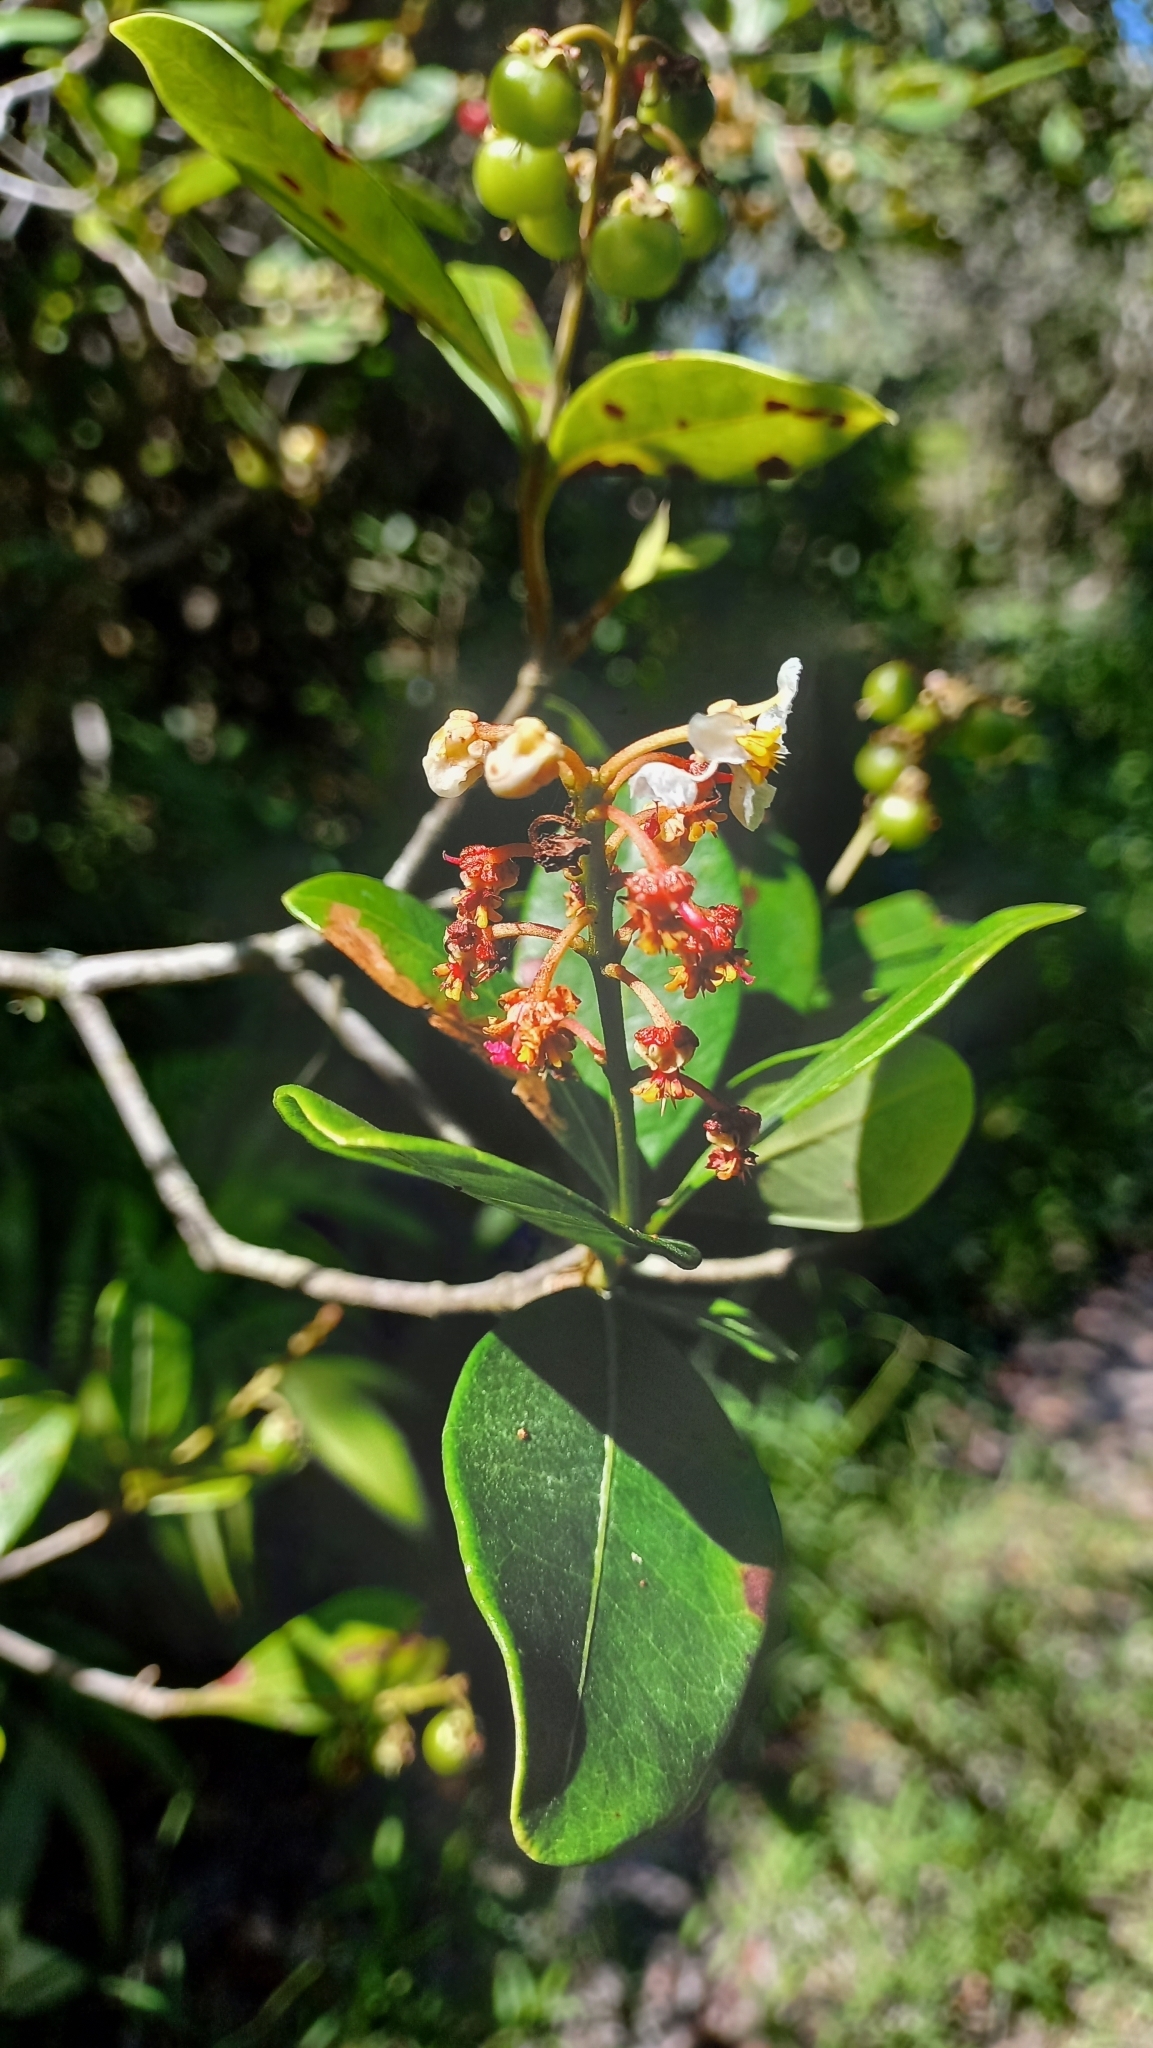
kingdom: Plantae
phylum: Tracheophyta
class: Magnoliopsida
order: Malpighiales
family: Malpighiaceae
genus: Byrsonima
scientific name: Byrsonima ligustrifolia
